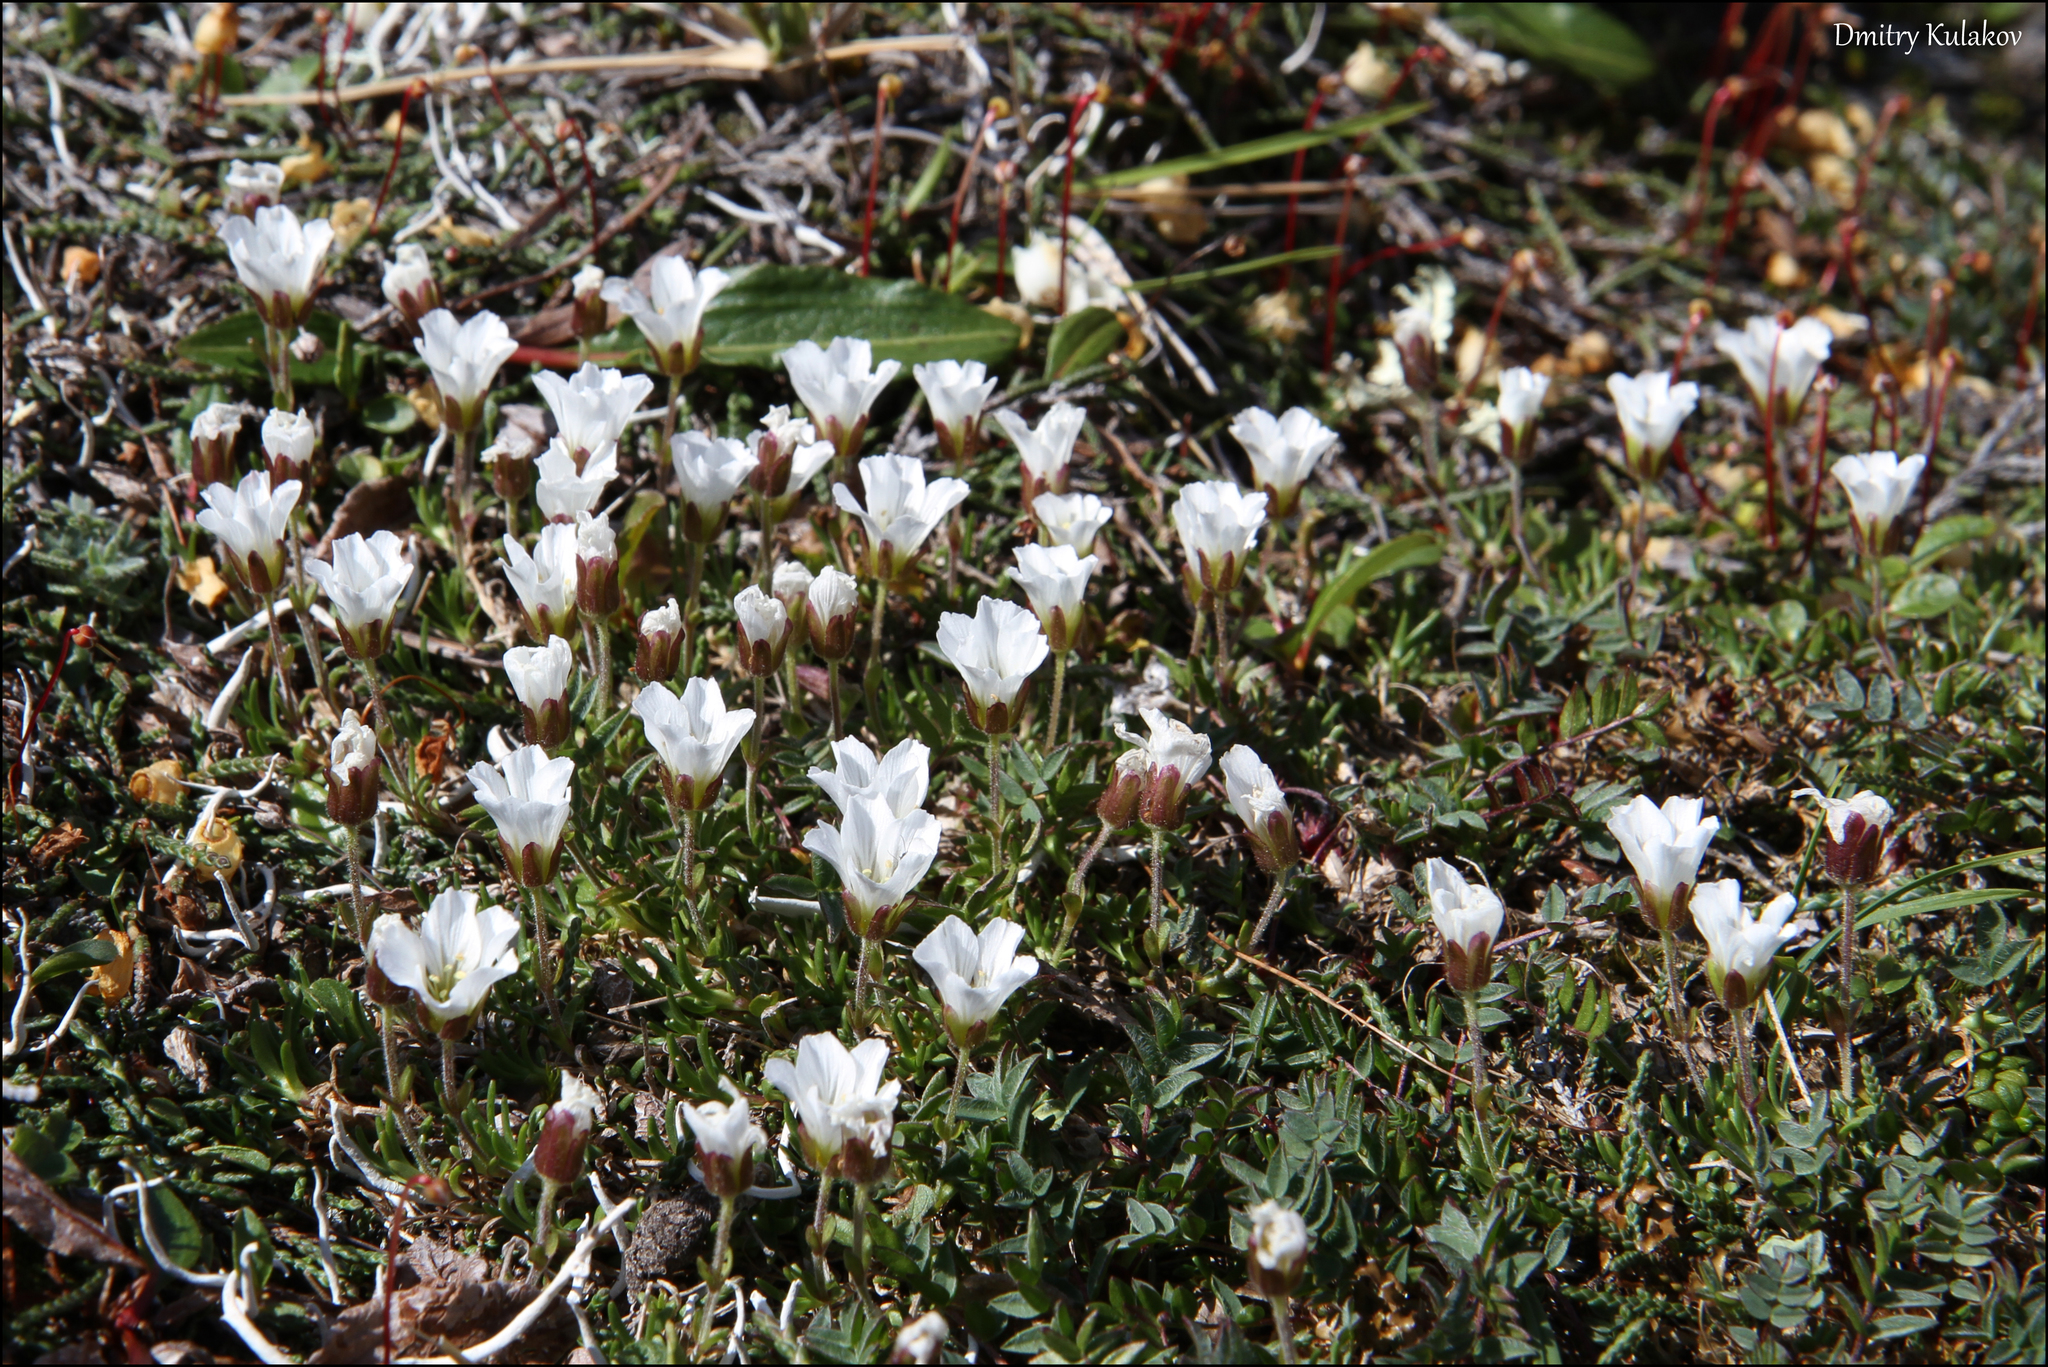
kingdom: Plantae
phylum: Tracheophyta
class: Magnoliopsida
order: Caryophyllales
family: Caryophyllaceae
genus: Pseudocherleria
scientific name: Pseudocherleria macrocarpa
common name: Large-fruit sandwort
